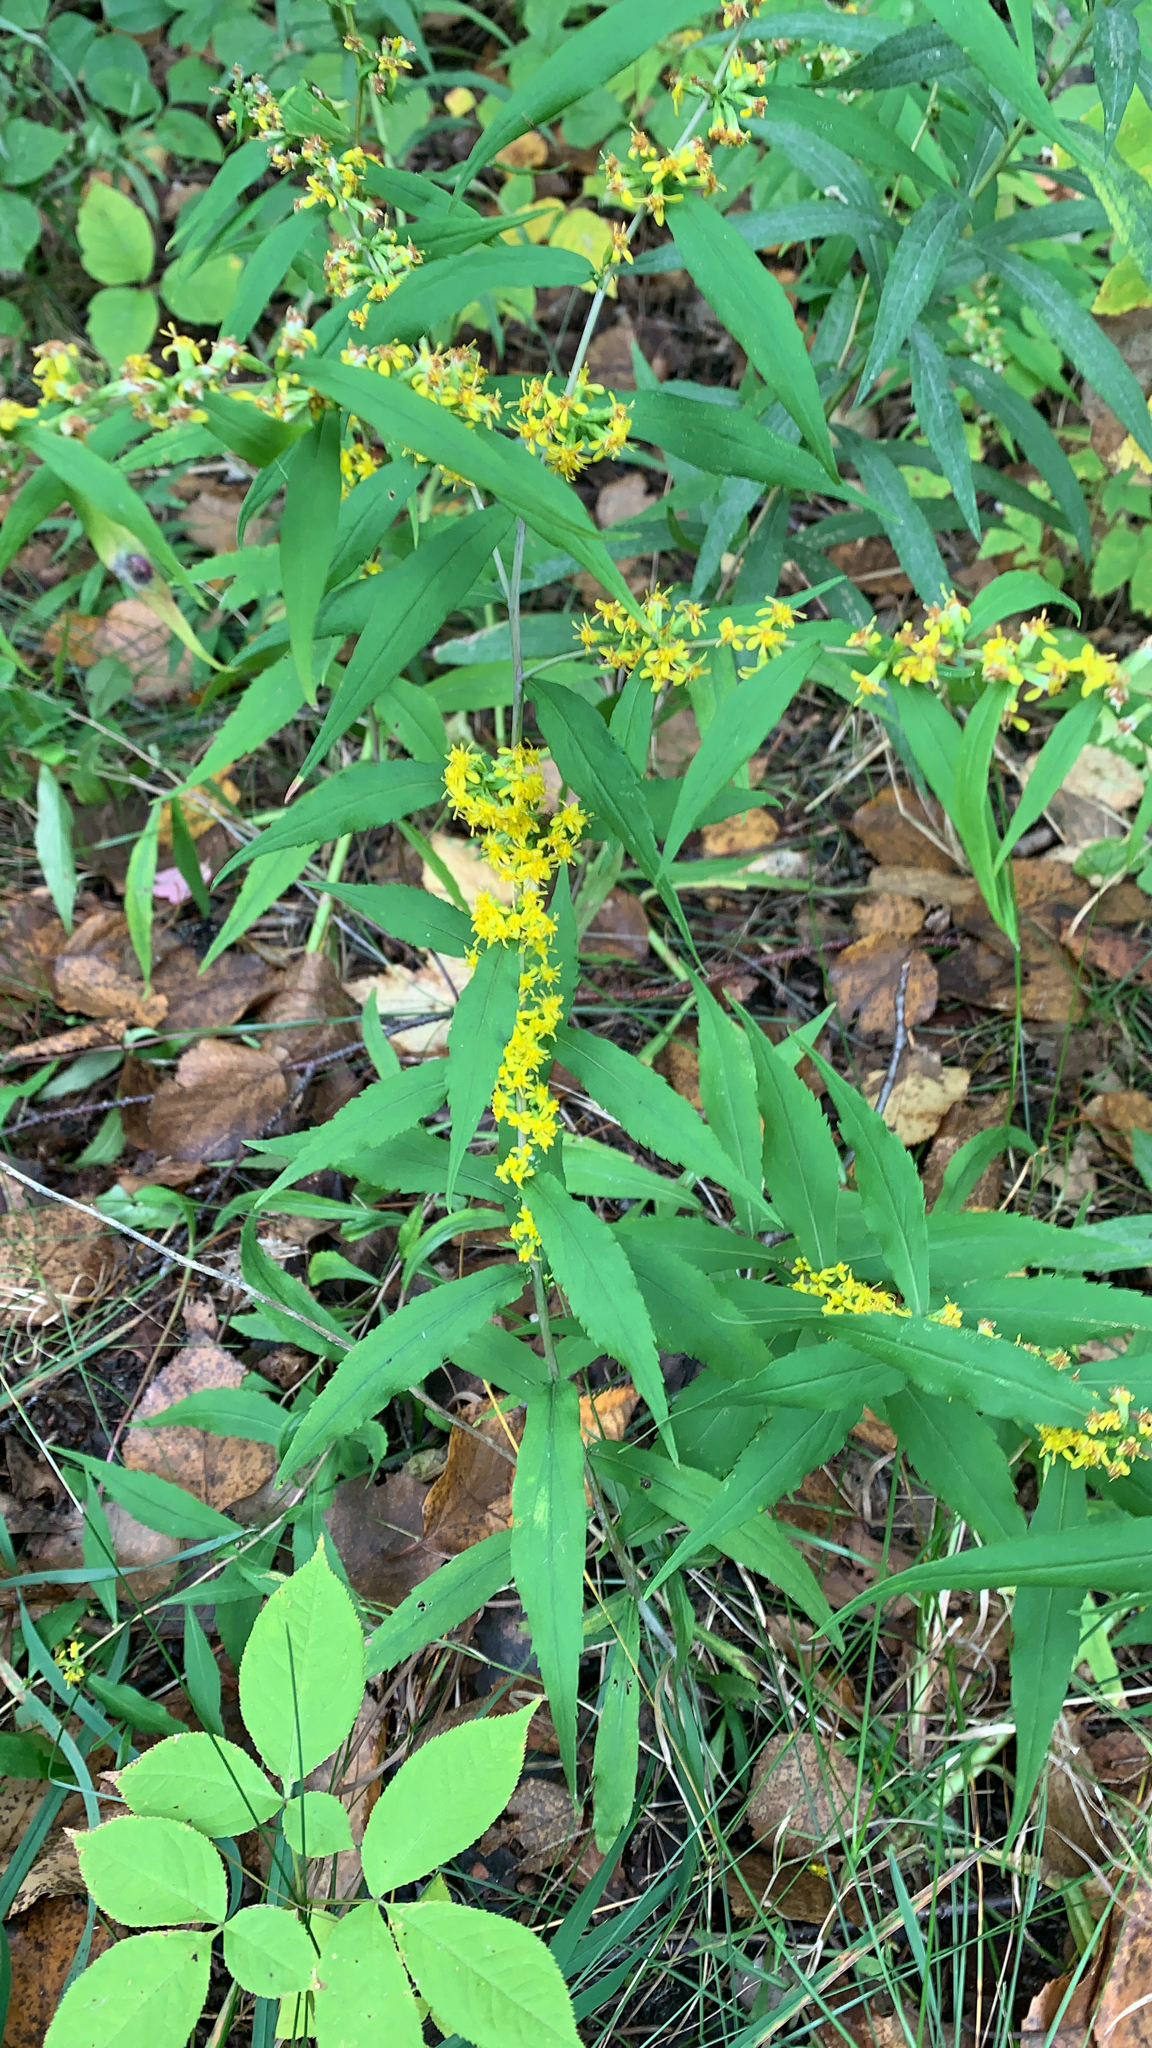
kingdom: Plantae
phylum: Tracheophyta
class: Magnoliopsida
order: Asterales
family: Asteraceae
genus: Solidago
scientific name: Solidago caesia
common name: Woodland goldenrod
